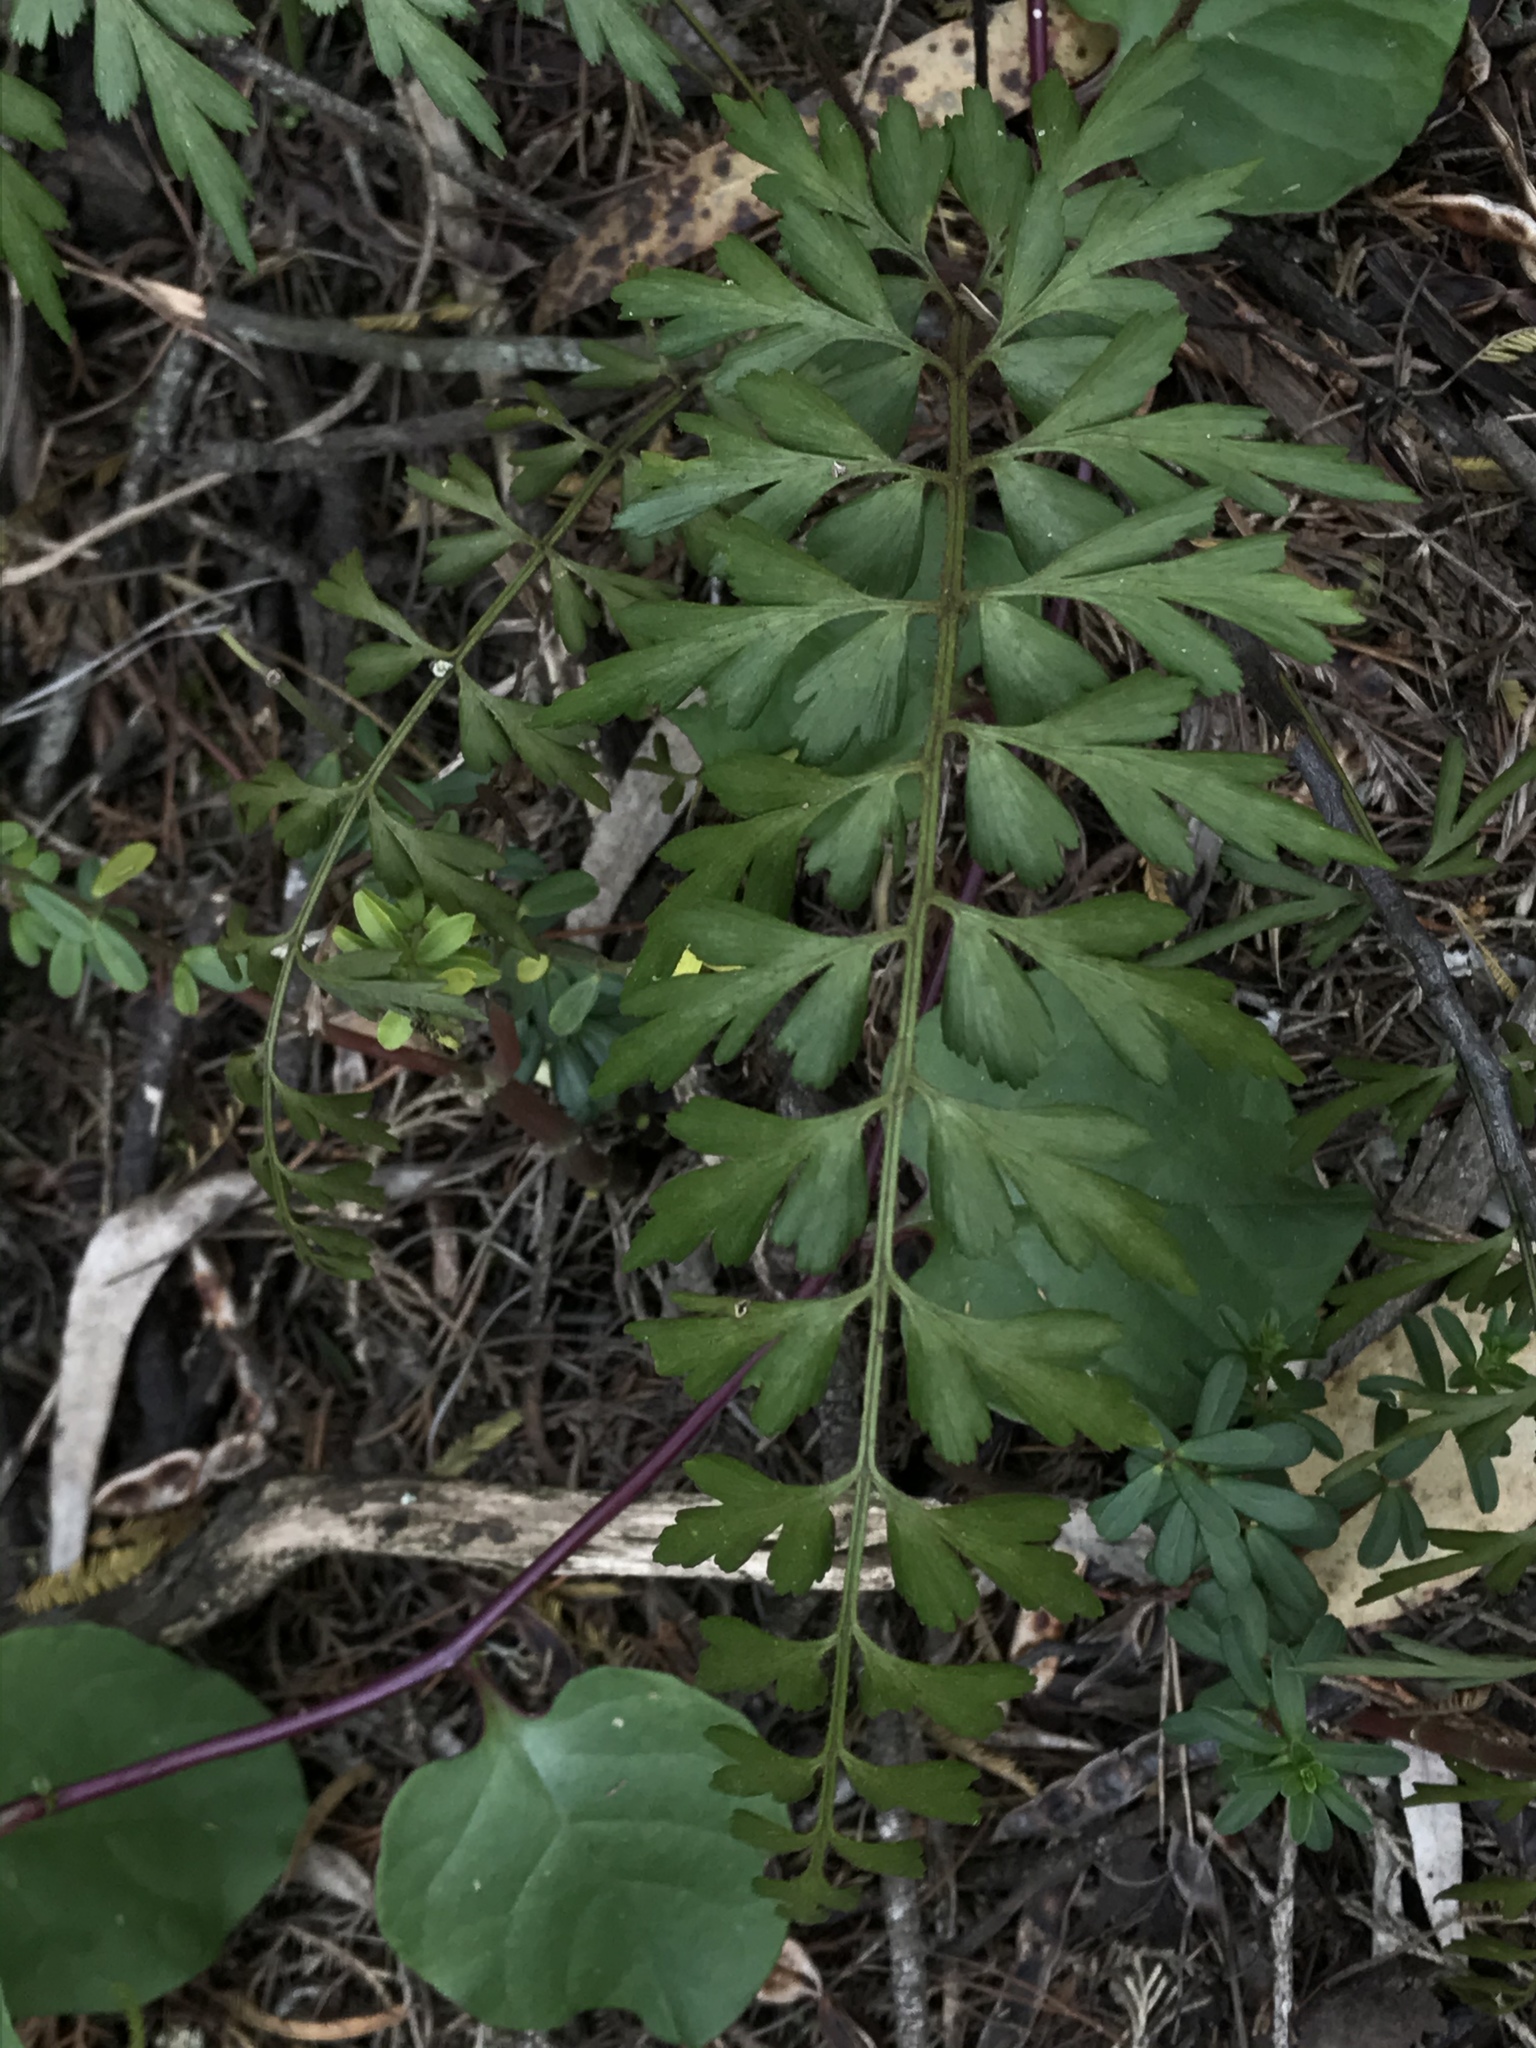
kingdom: Plantae
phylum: Tracheophyta
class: Polypodiopsida
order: Polypodiales
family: Aspleniaceae
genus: Asplenium
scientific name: Asplenium praemorsum
